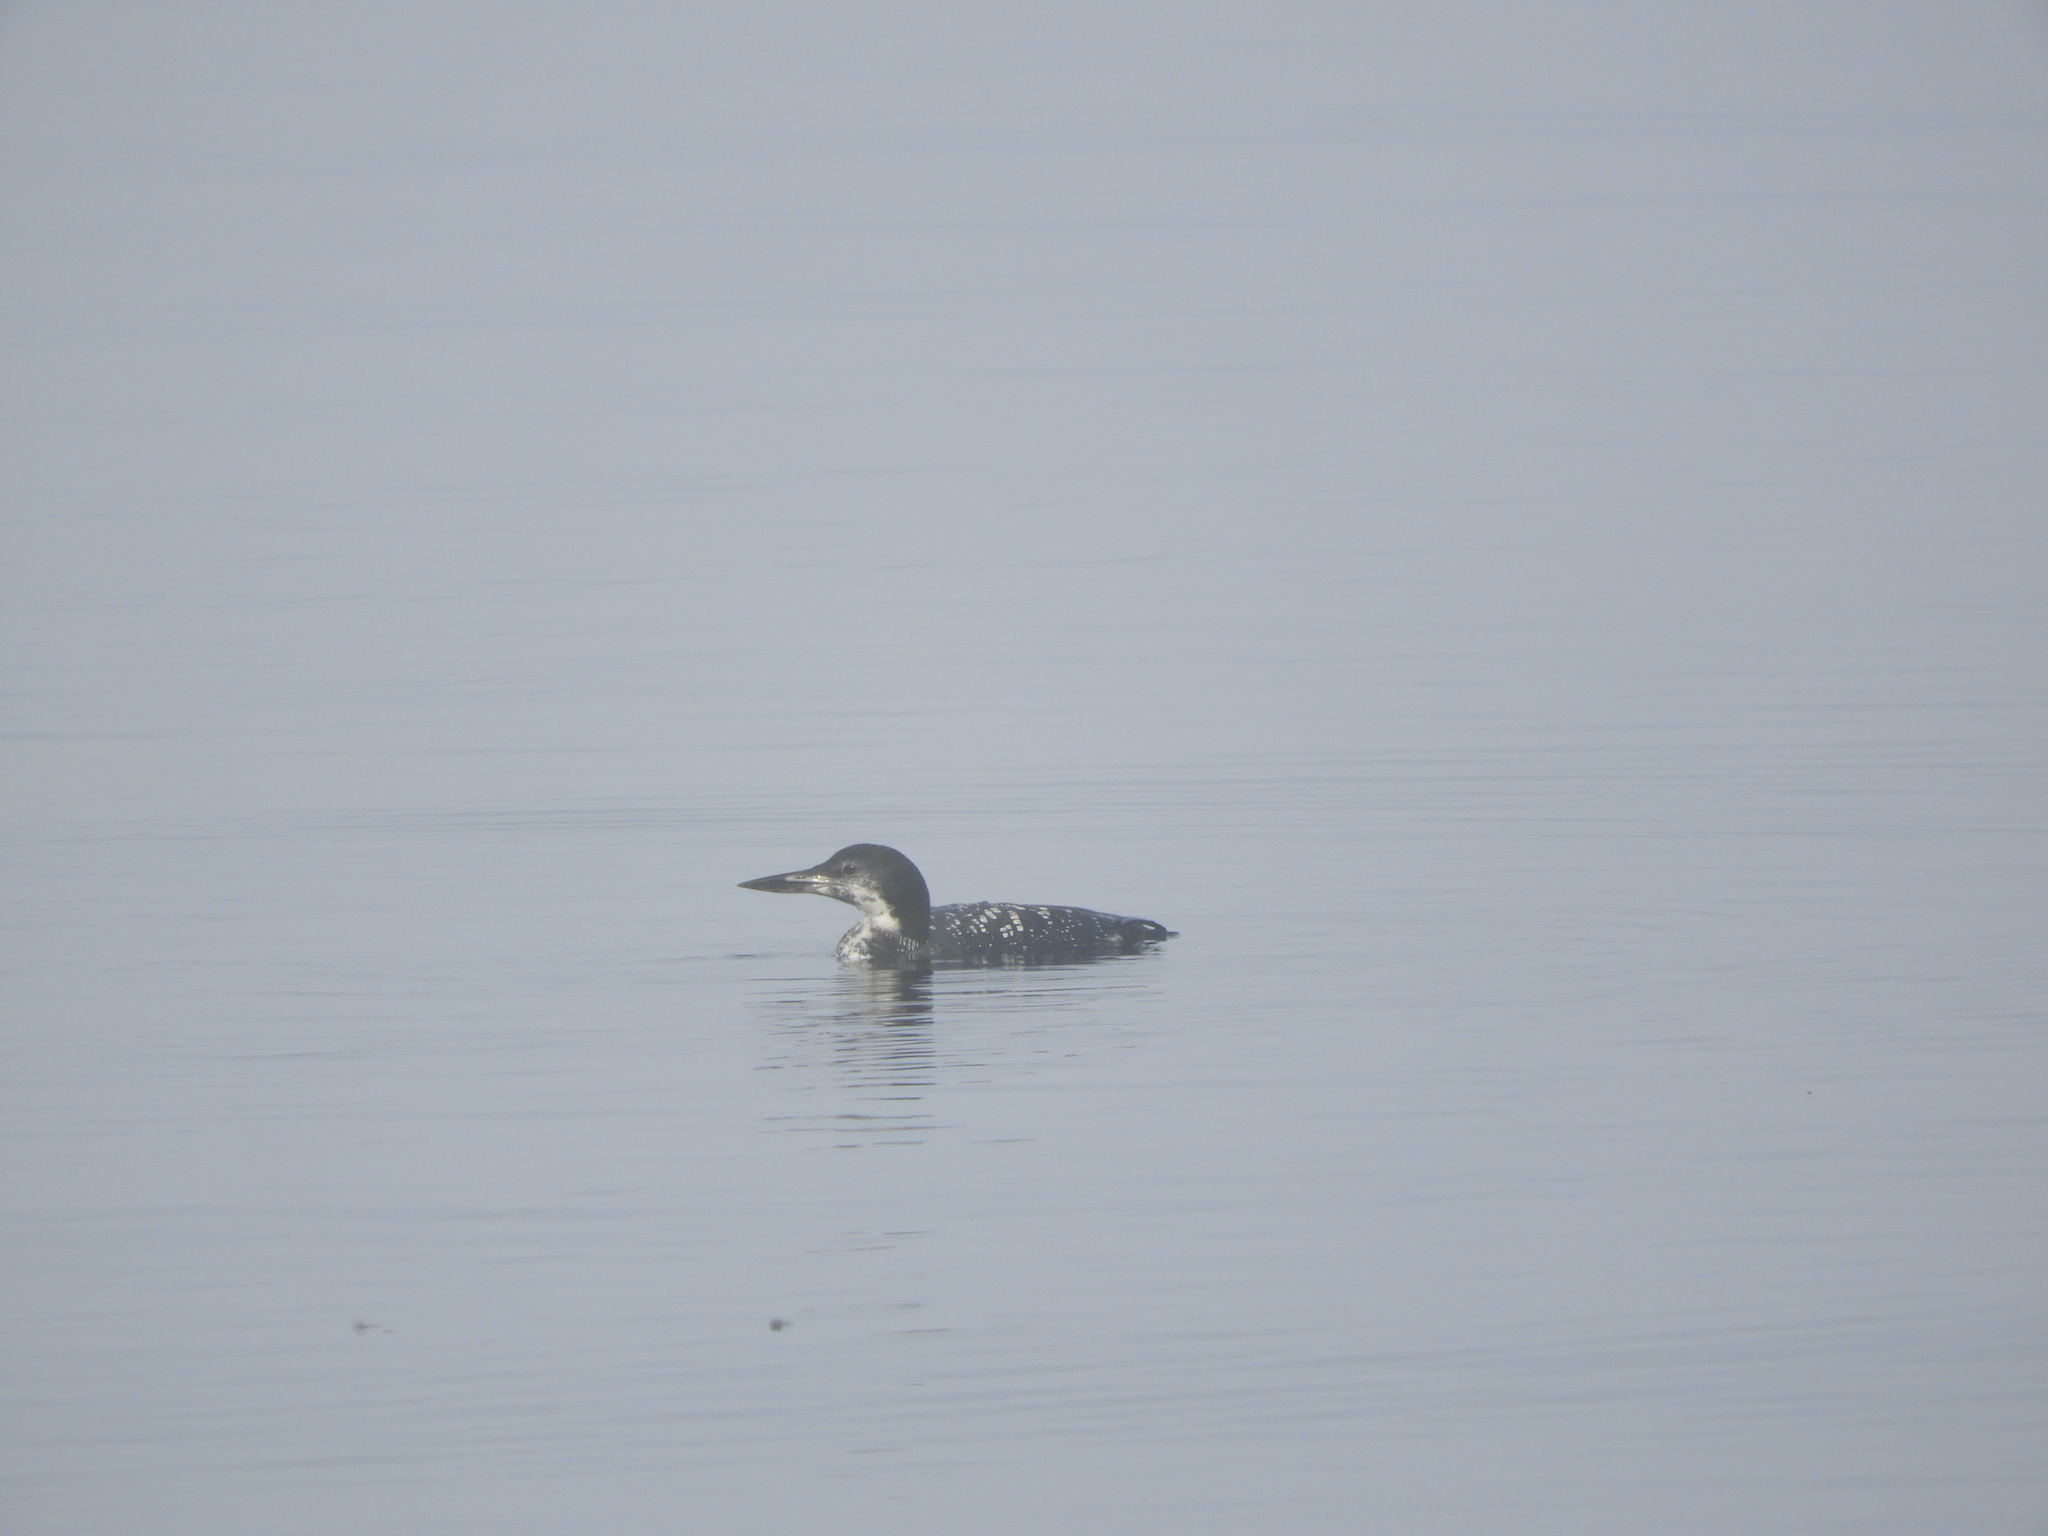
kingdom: Animalia
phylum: Chordata
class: Aves
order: Gaviiformes
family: Gaviidae
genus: Gavia
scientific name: Gavia immer
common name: Common loon
